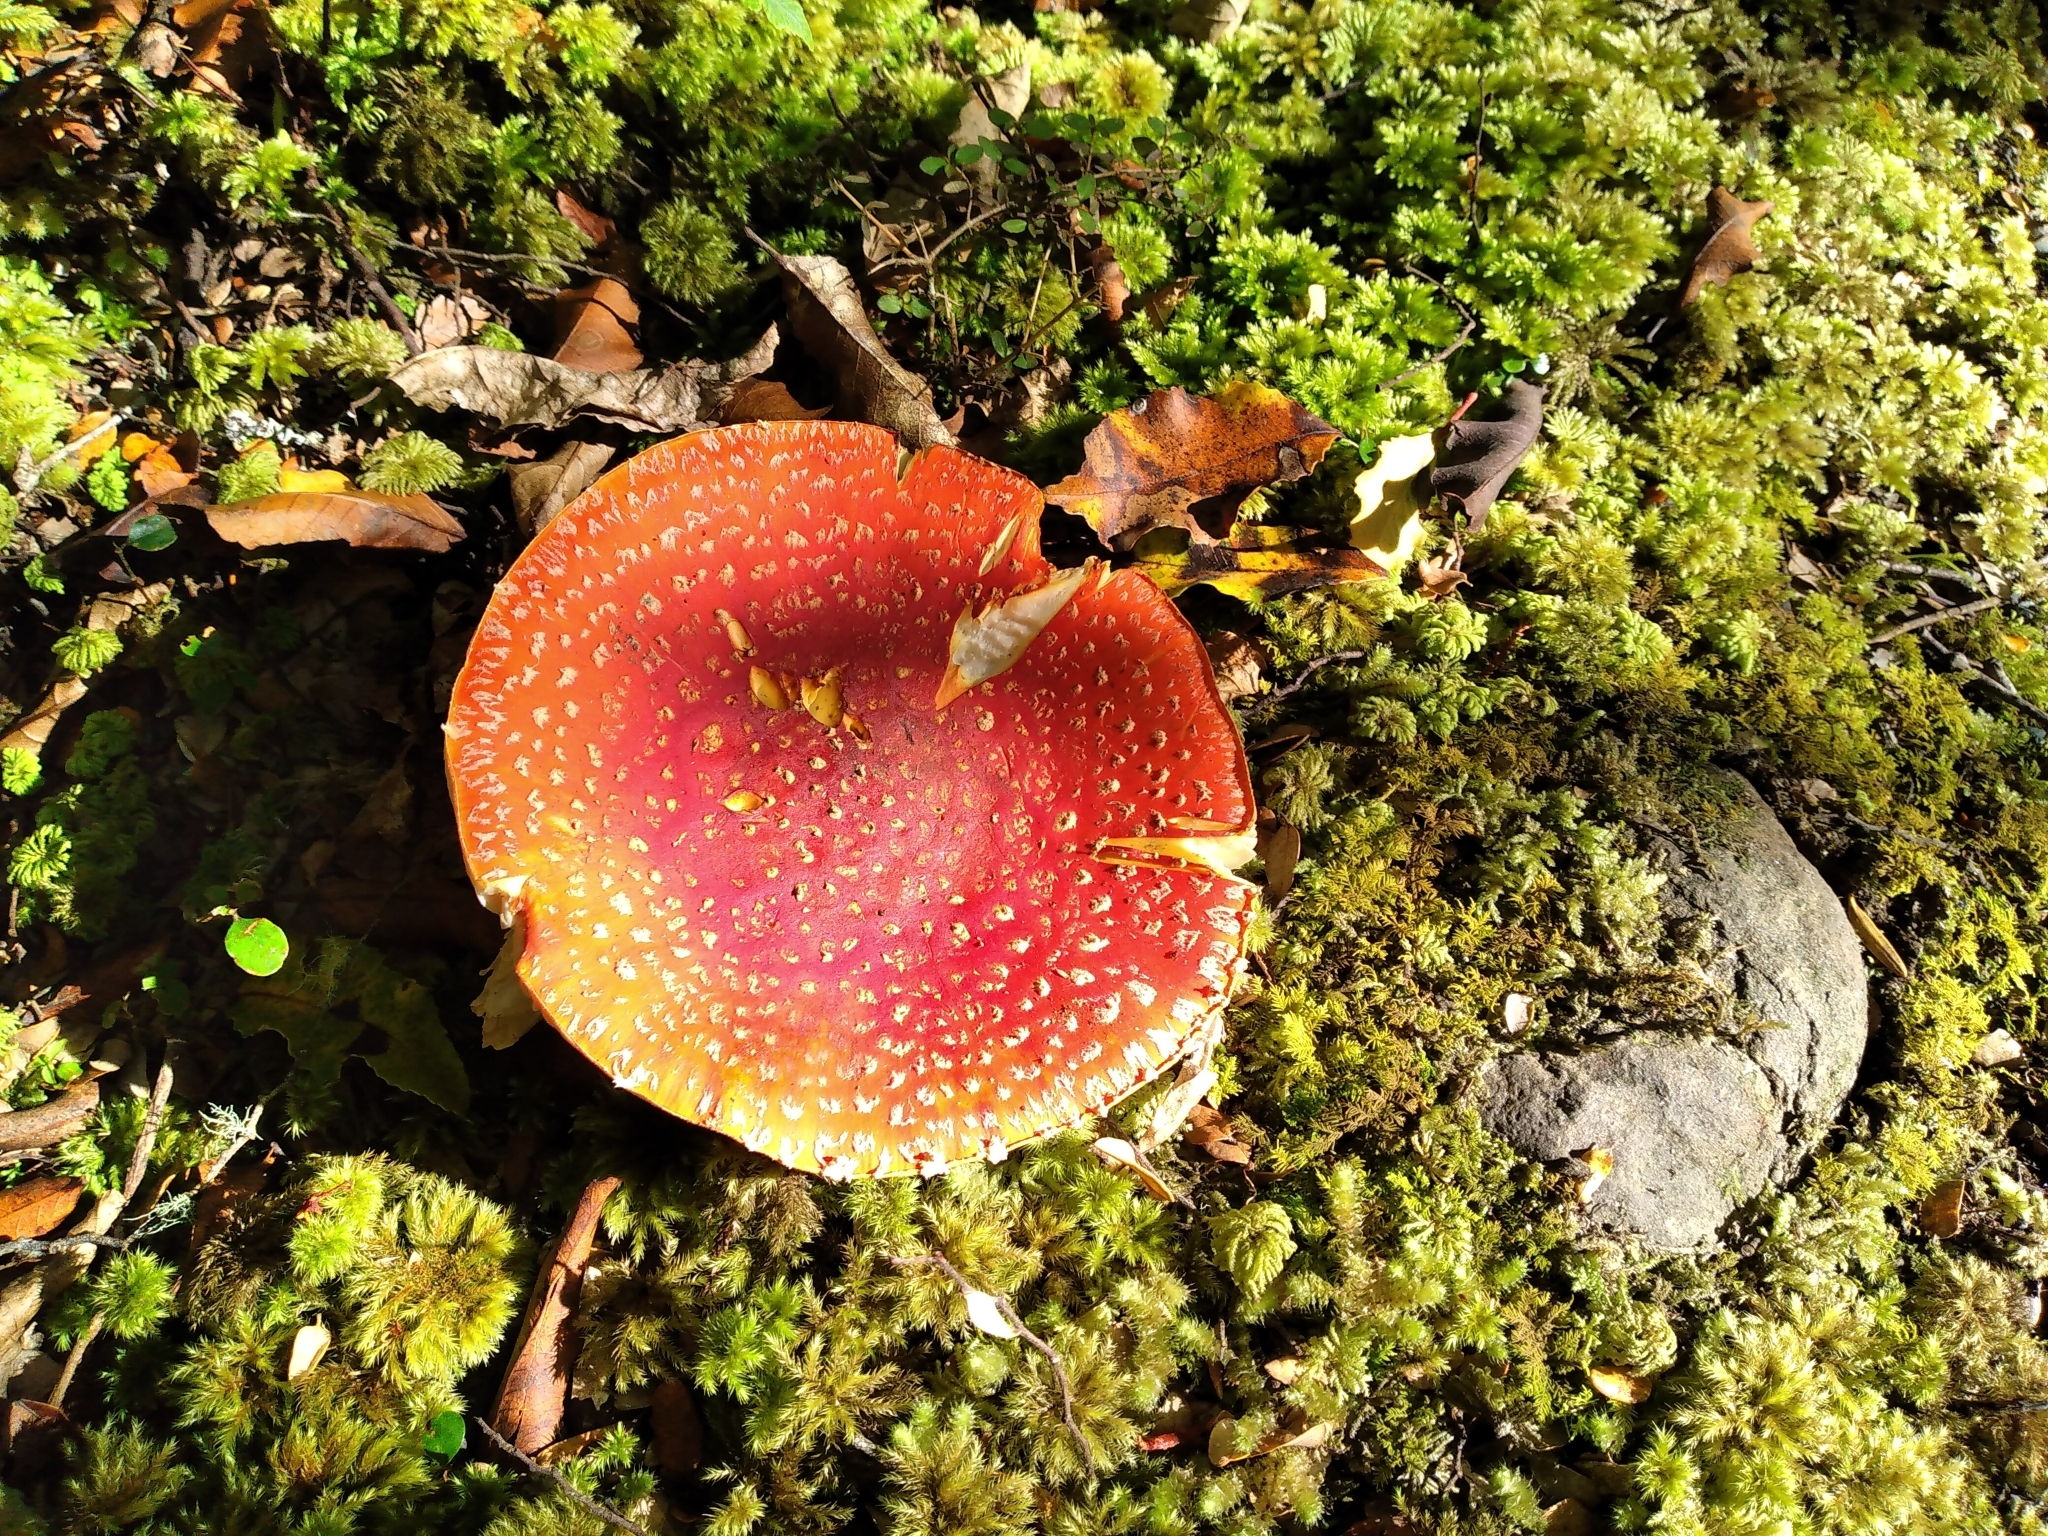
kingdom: Fungi
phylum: Basidiomycota
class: Agaricomycetes
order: Agaricales
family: Amanitaceae
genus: Amanita
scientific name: Amanita muscaria
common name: Fly agaric
